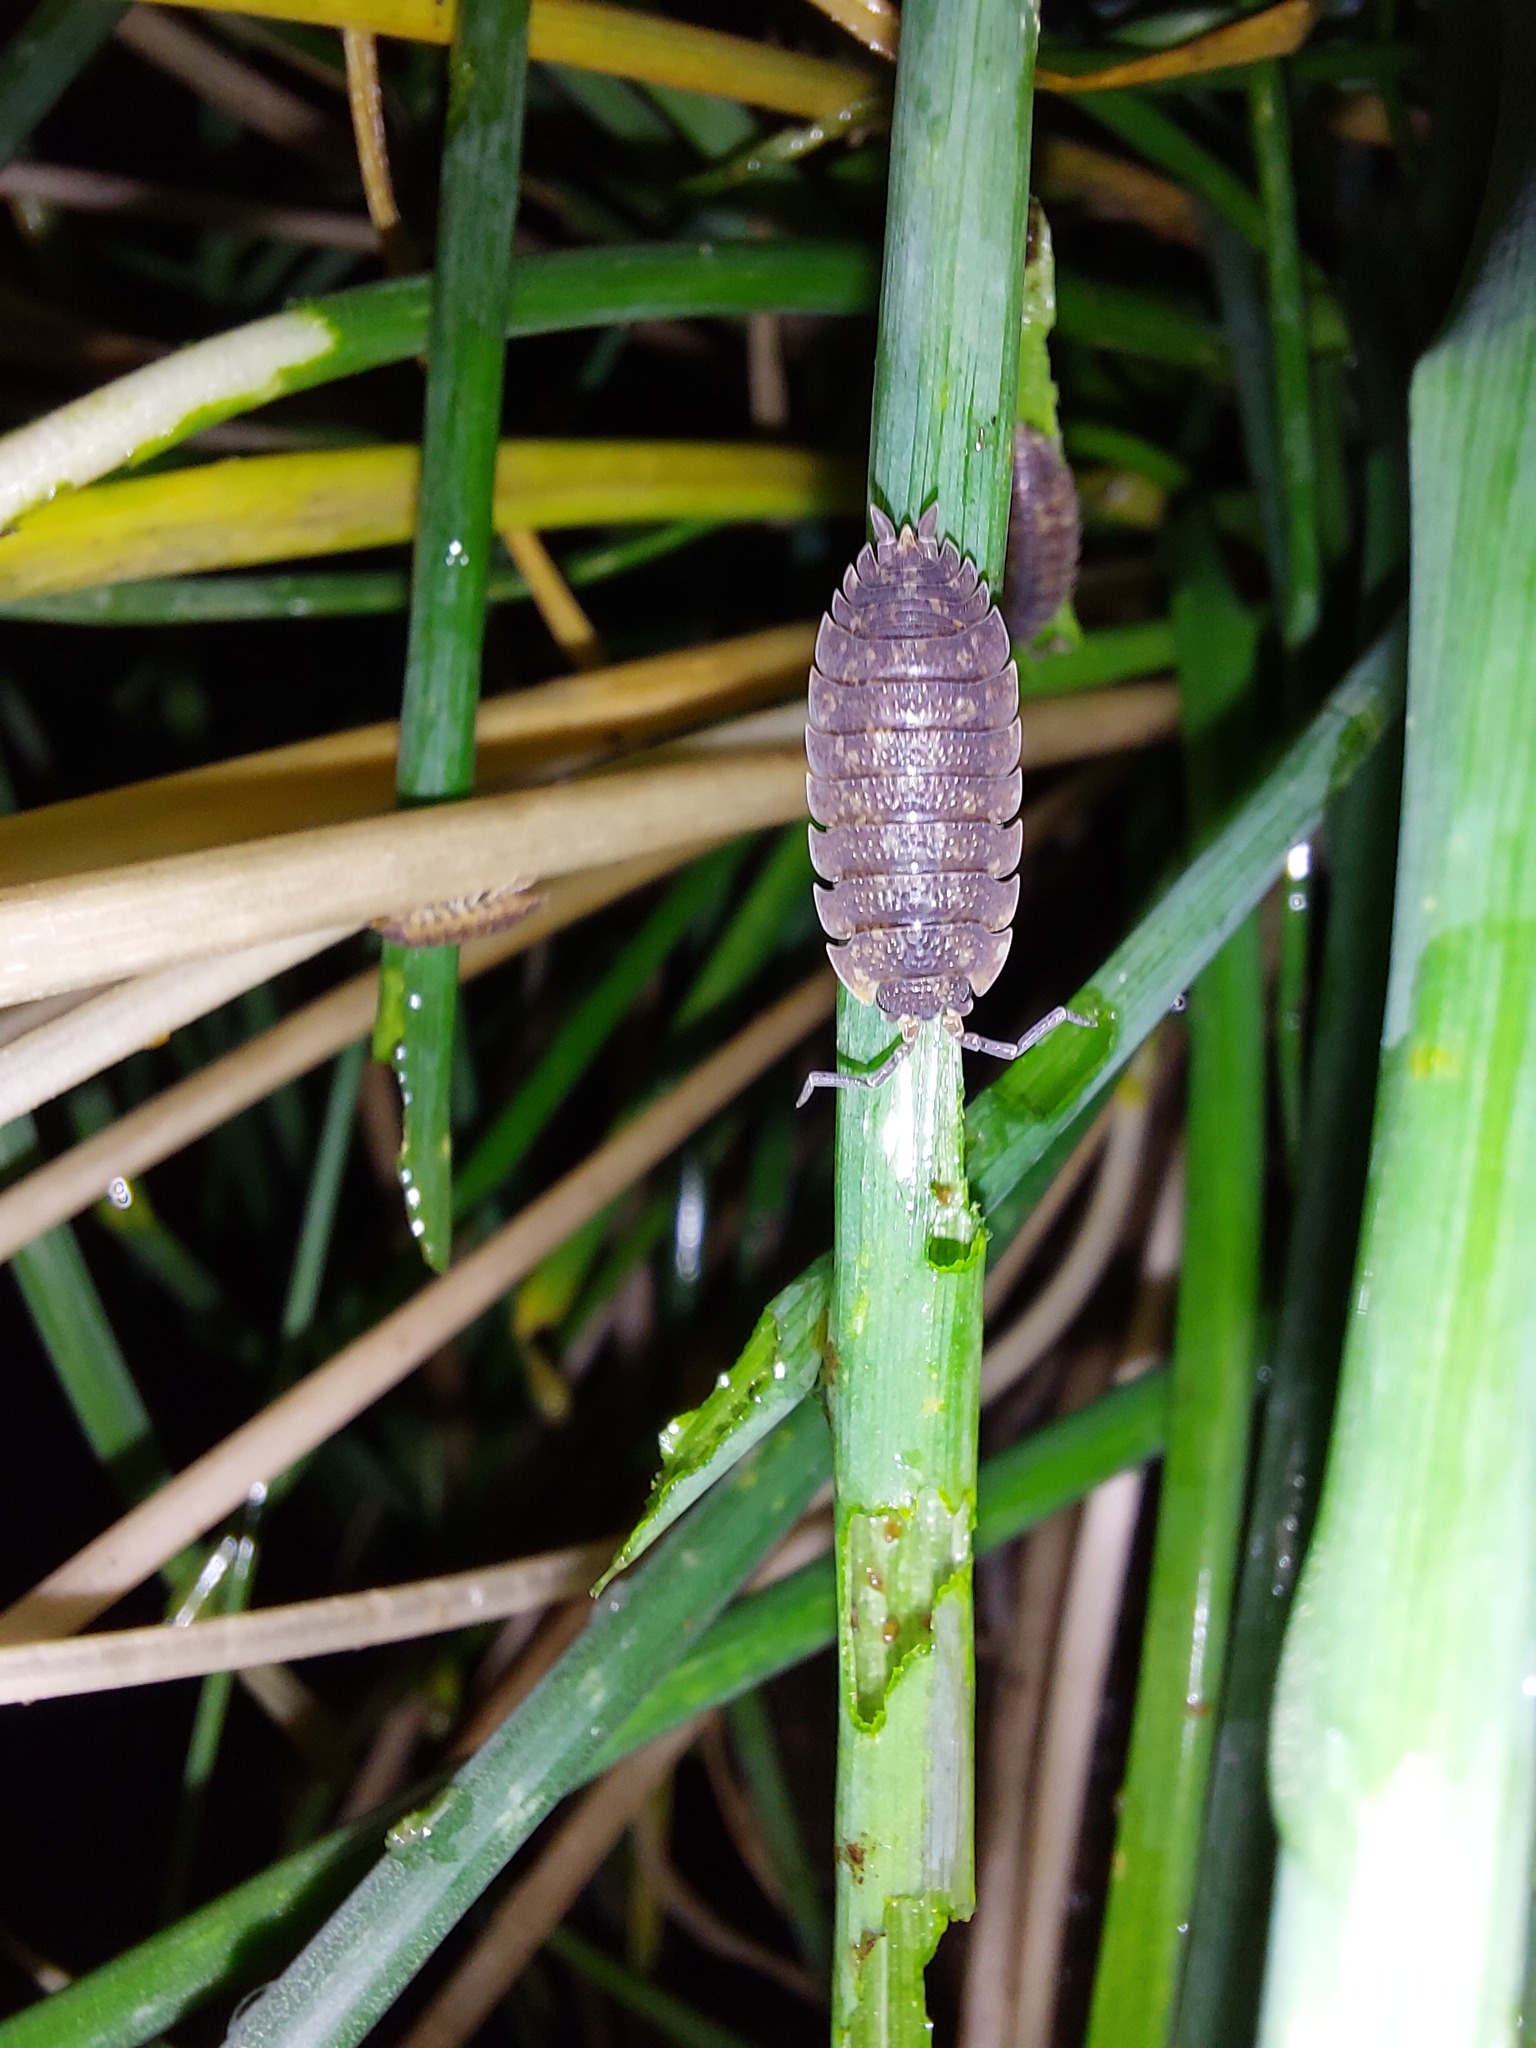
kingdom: Animalia
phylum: Arthropoda
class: Malacostraca
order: Isopoda
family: Porcellionidae
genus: Porcellio
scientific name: Porcellio scaber
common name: Common rough woodlouse
